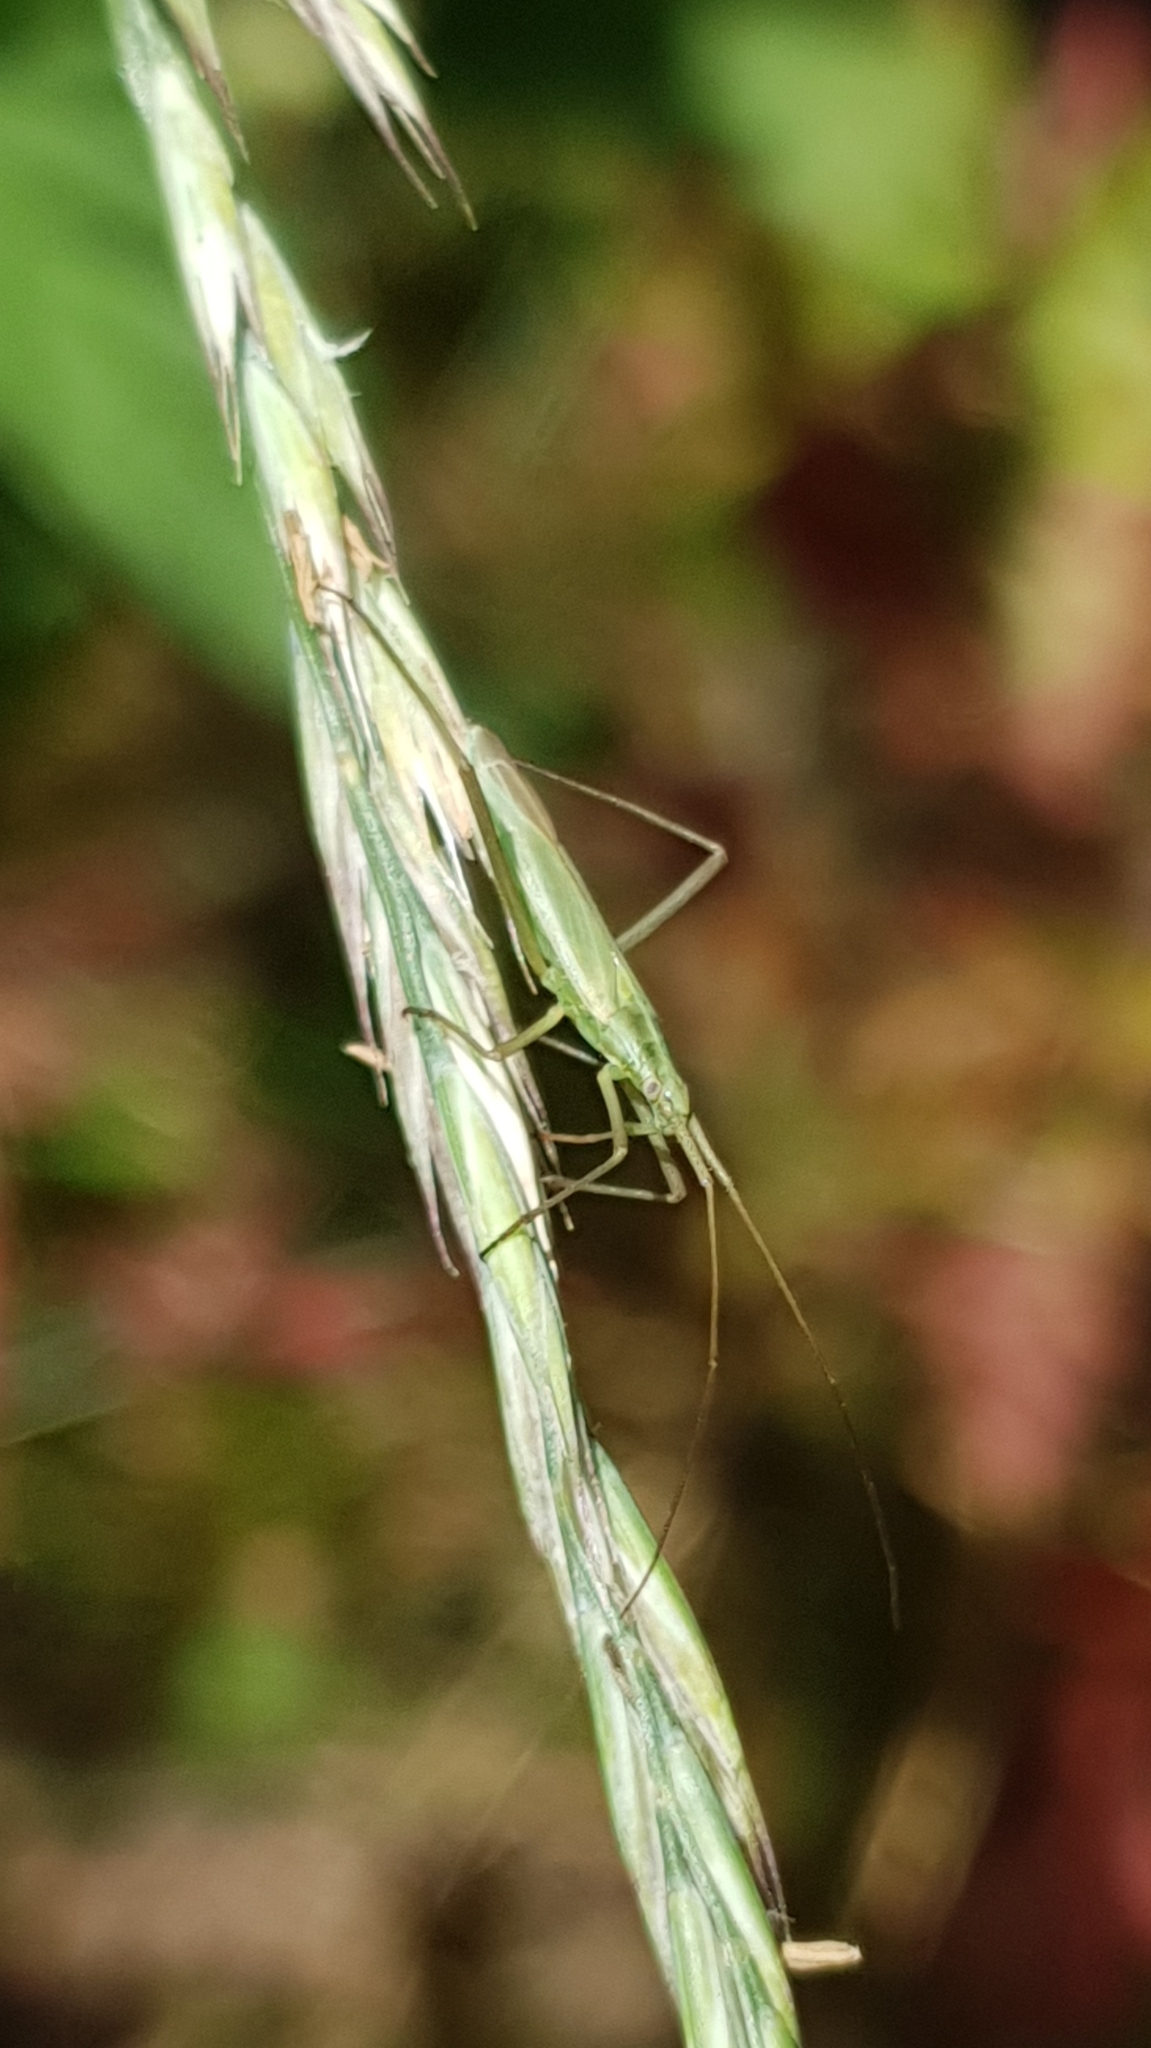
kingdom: Animalia
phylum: Arthropoda
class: Insecta
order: Hemiptera
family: Miridae
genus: Megaloceroea
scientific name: Megaloceroea recticornis
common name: Plant bug
